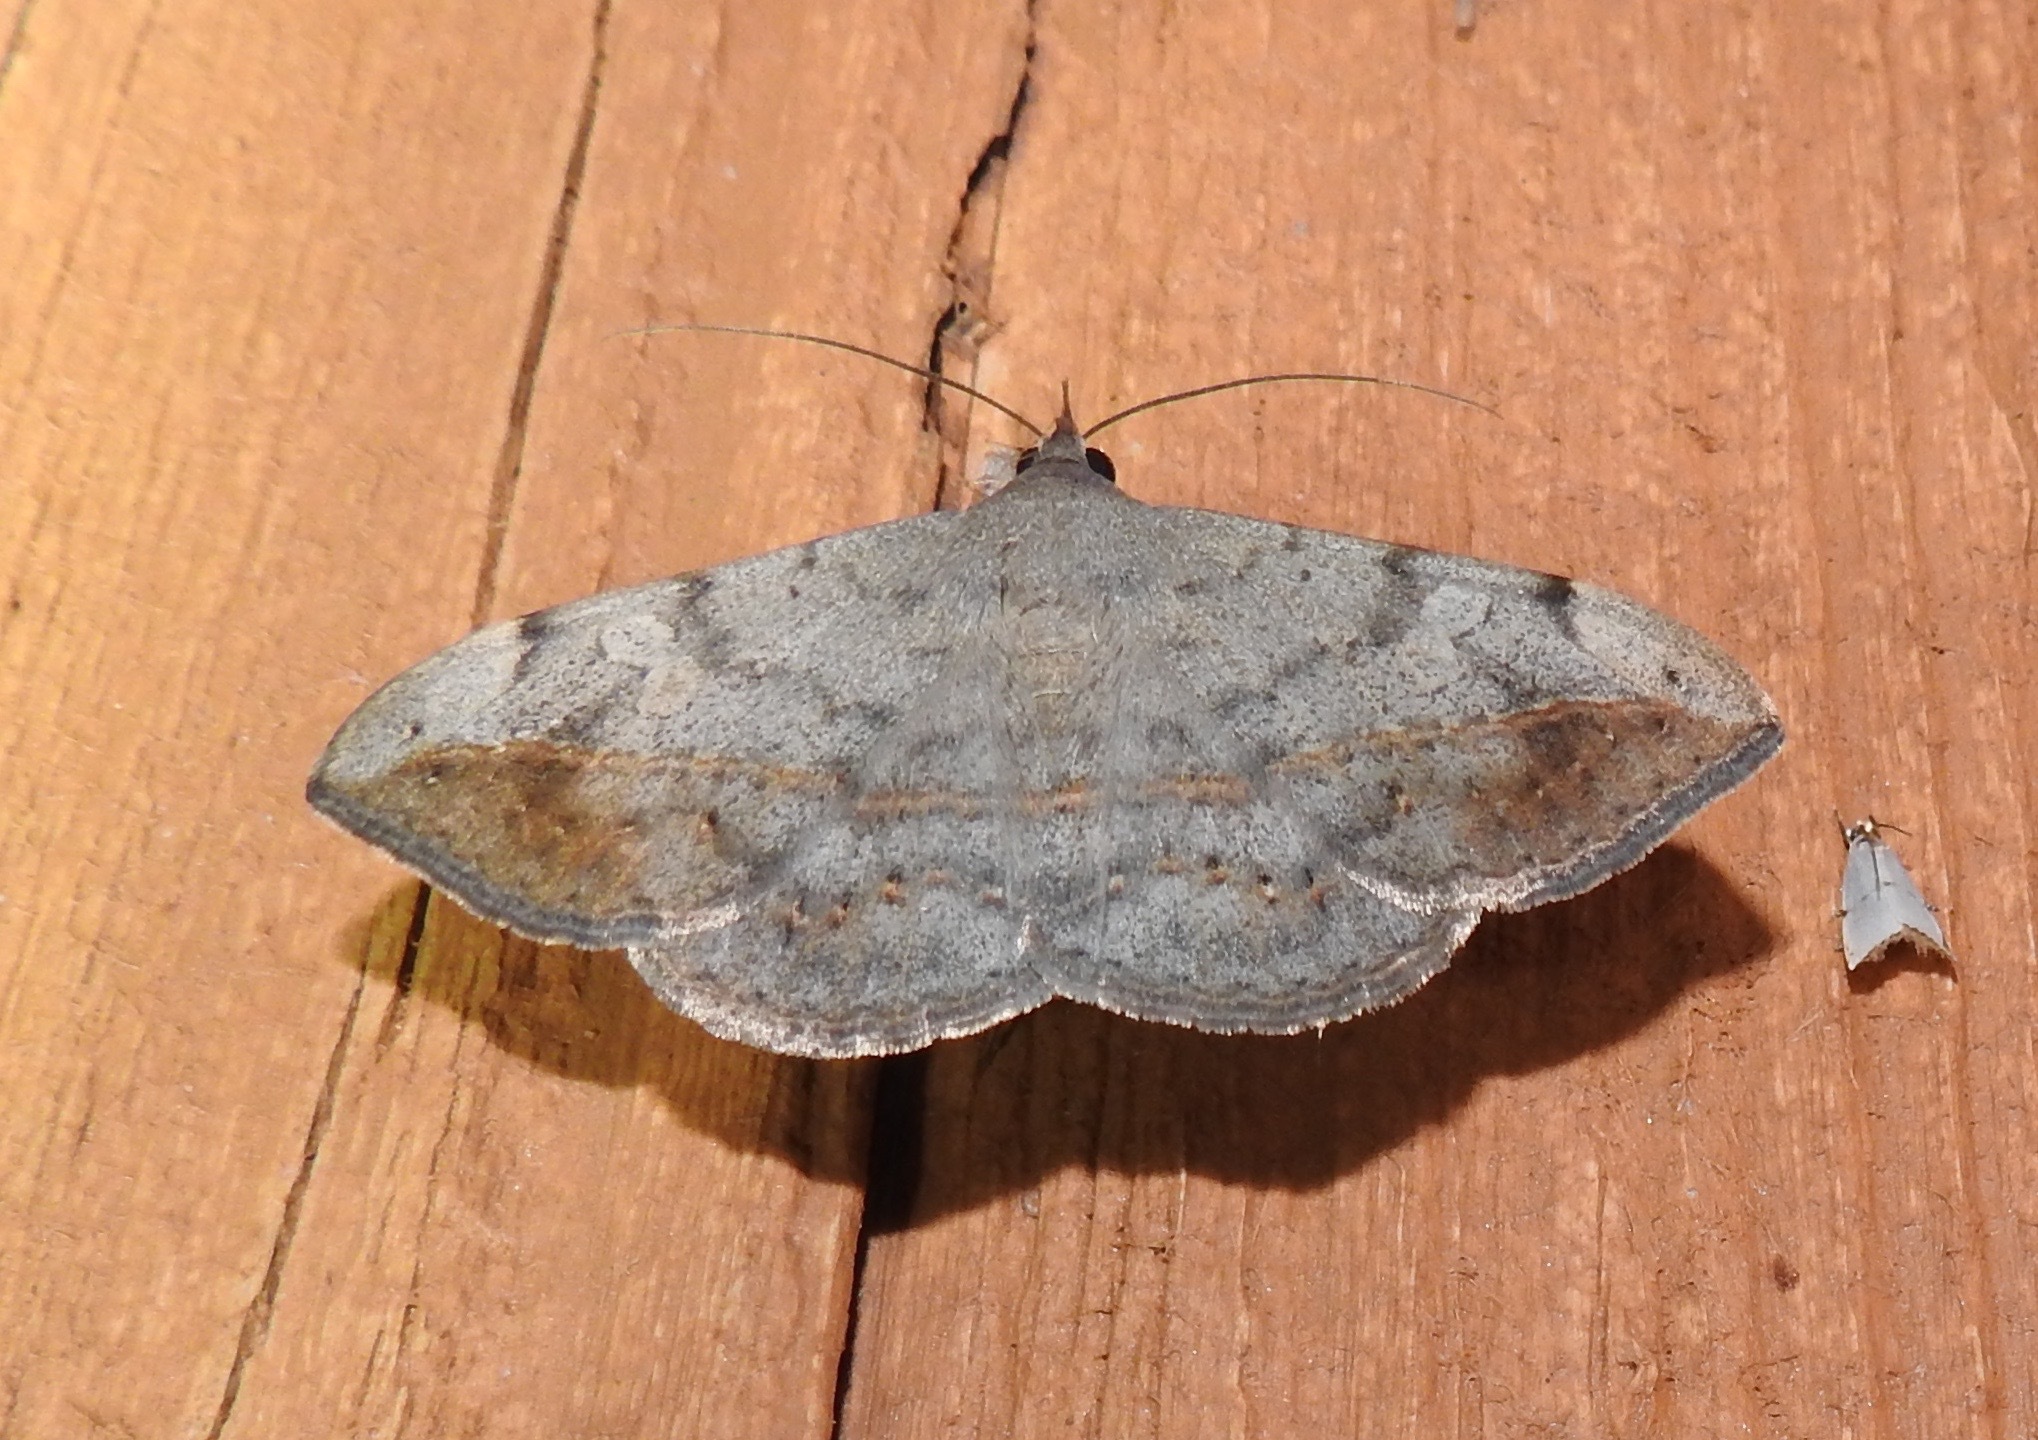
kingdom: Animalia
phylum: Arthropoda
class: Insecta
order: Lepidoptera
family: Erebidae
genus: Anticarsia
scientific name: Anticarsia gemmatalis
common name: Cutworm moth
